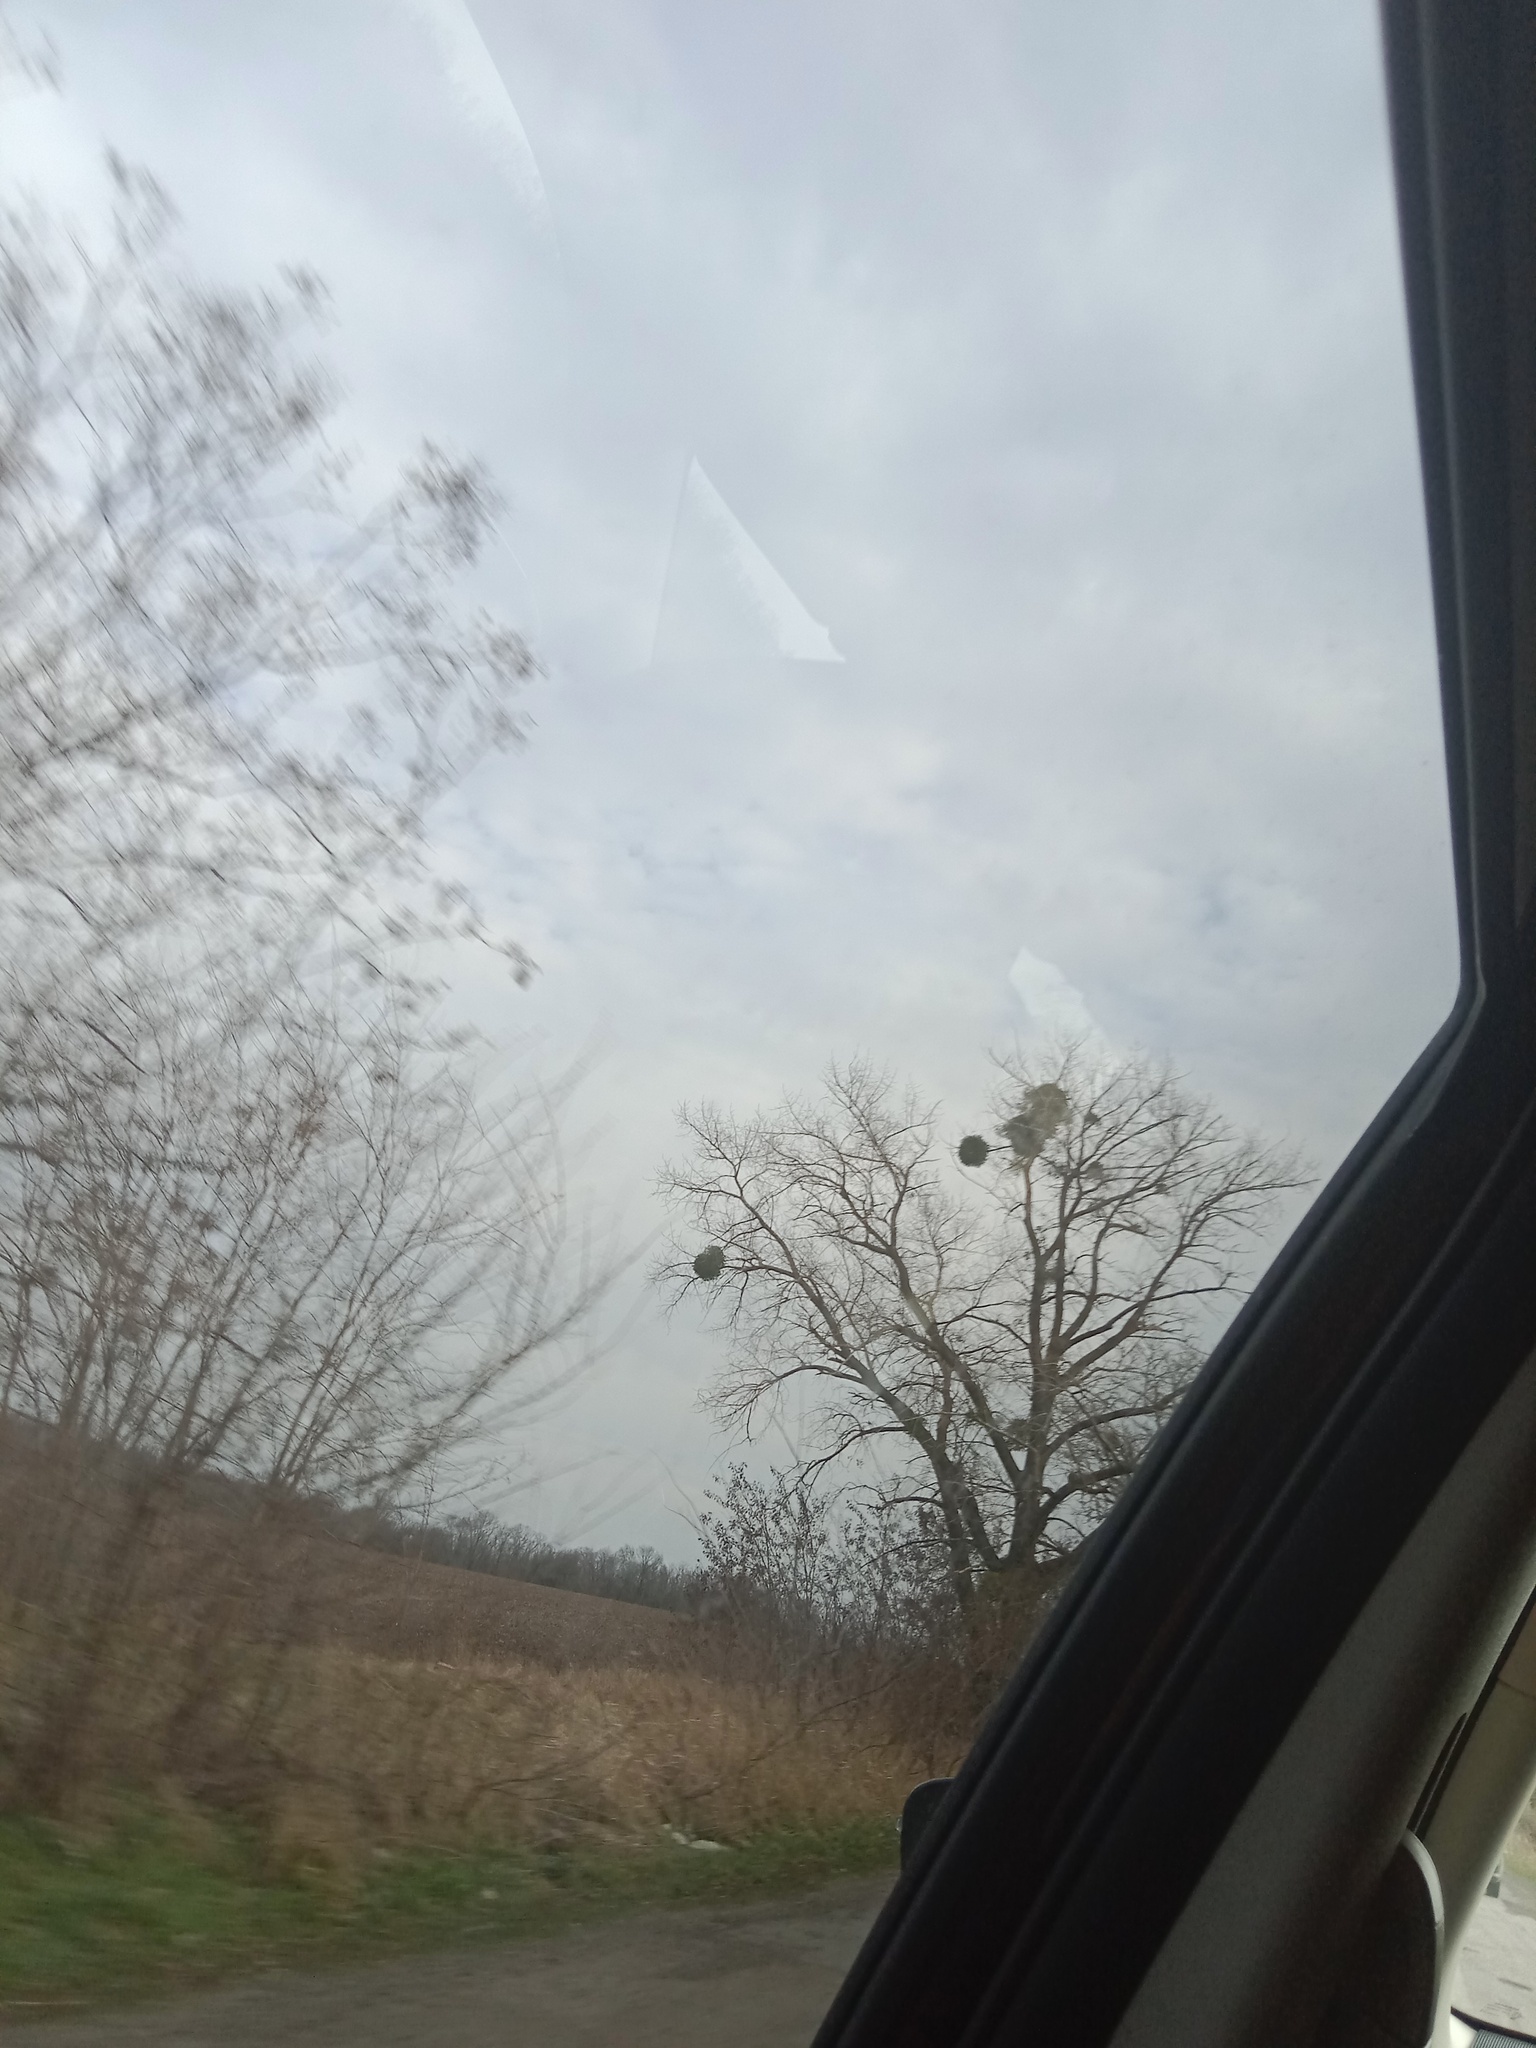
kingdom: Plantae
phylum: Tracheophyta
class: Magnoliopsida
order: Santalales
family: Viscaceae
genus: Viscum
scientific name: Viscum album
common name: Mistletoe
